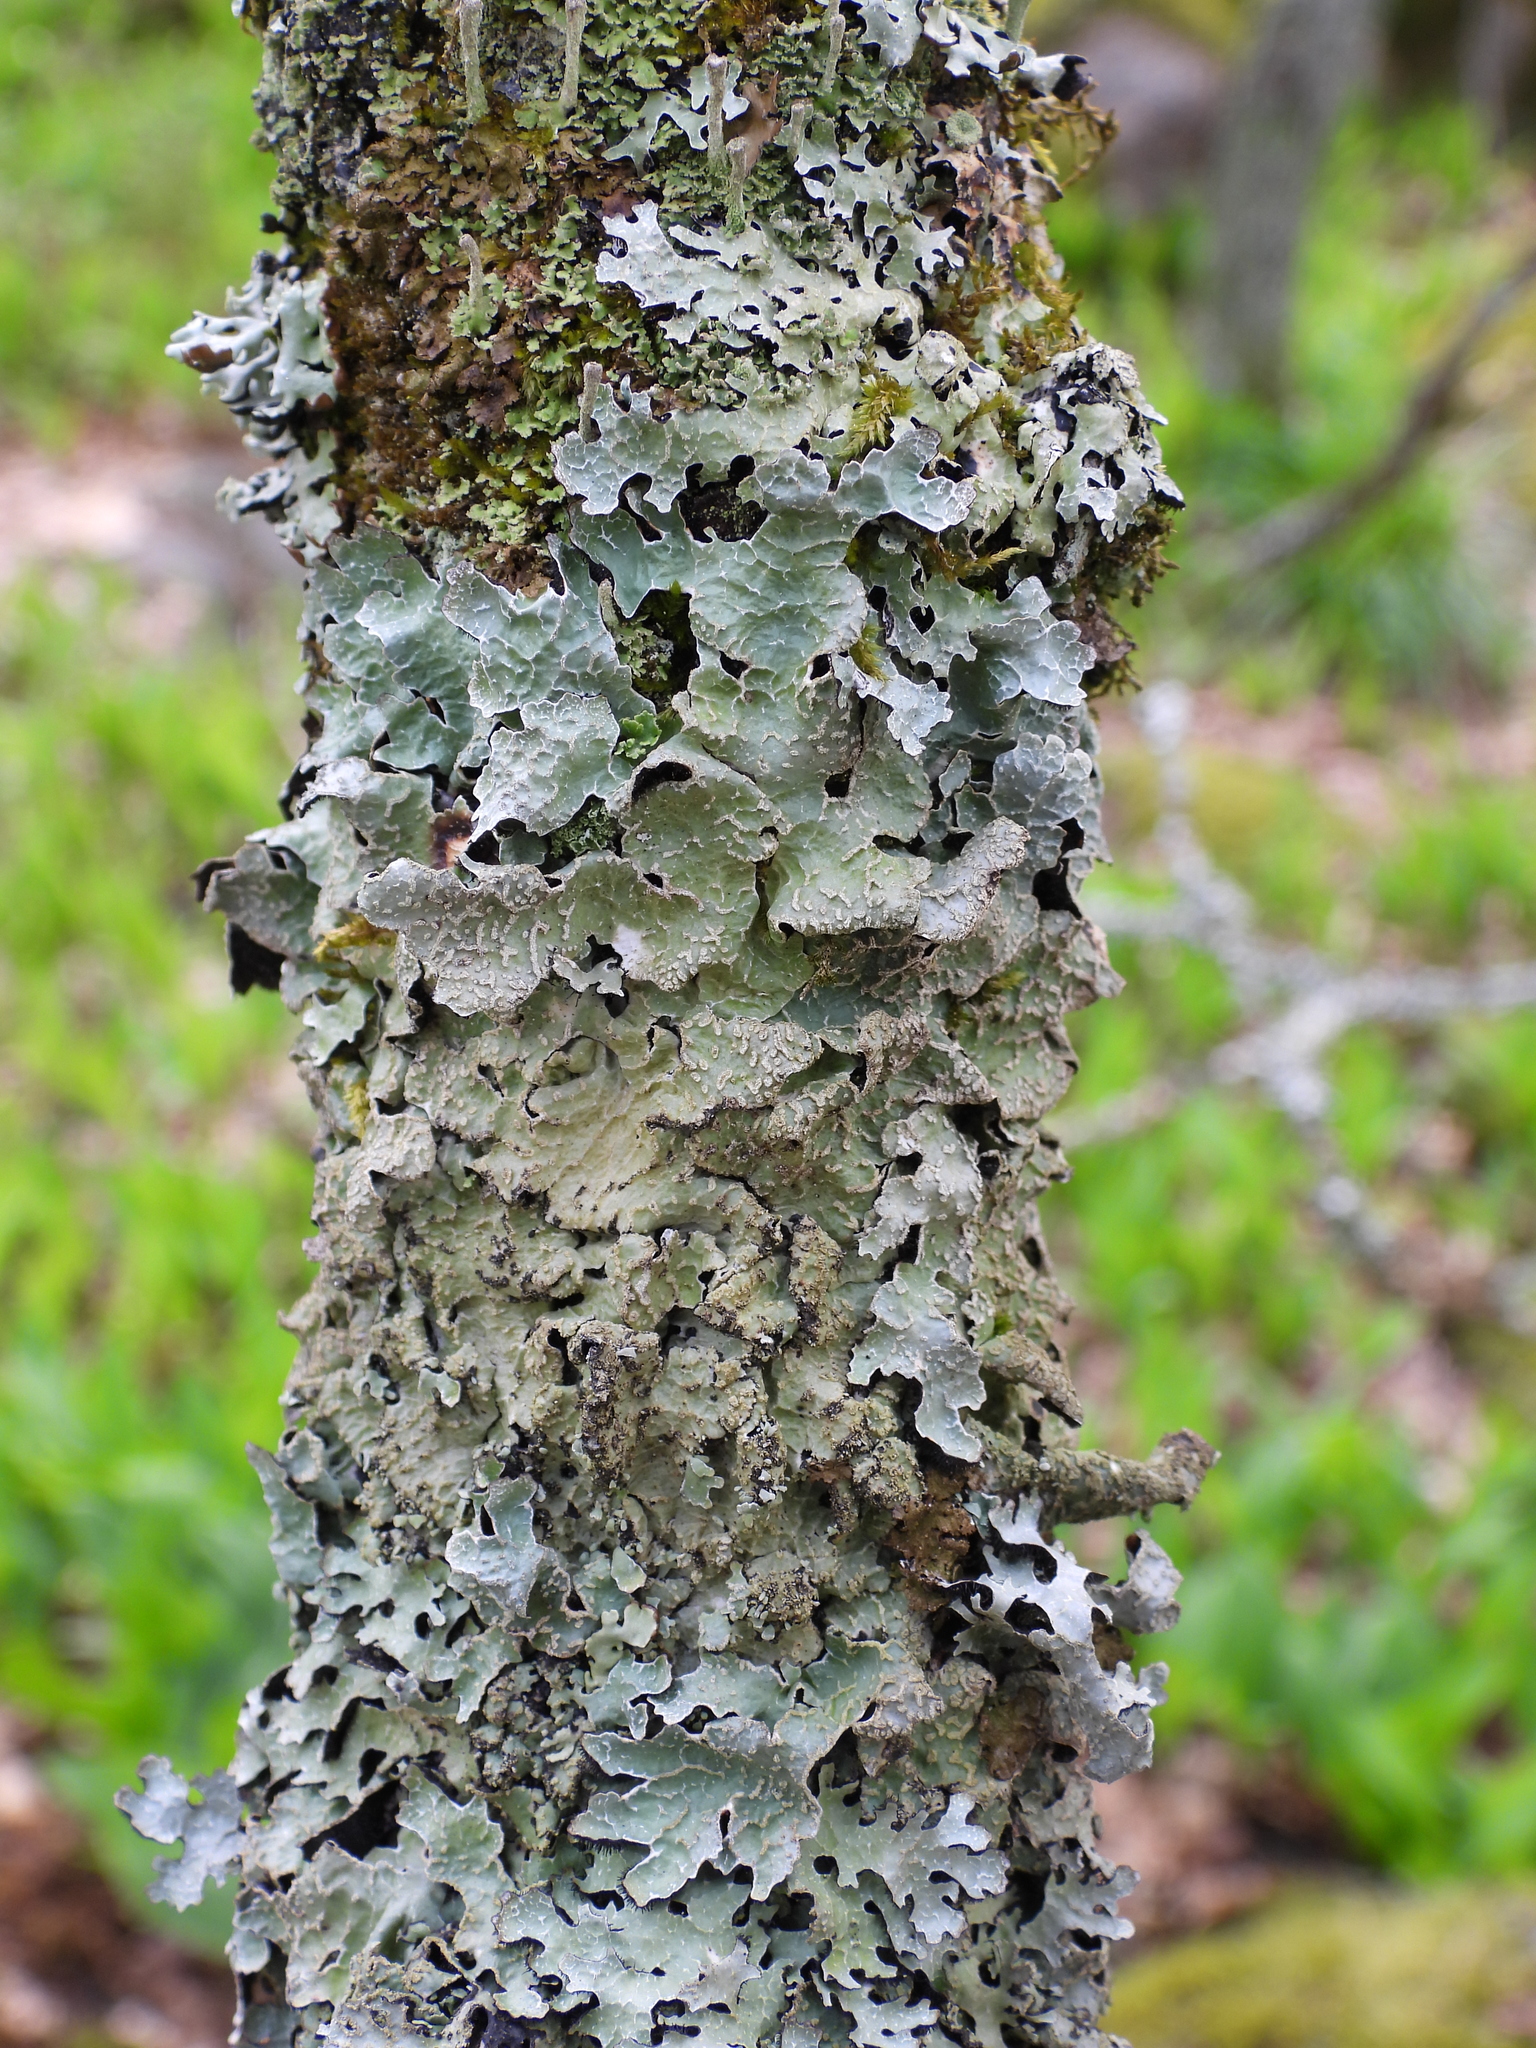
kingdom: Fungi
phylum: Ascomycota
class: Lecanoromycetes
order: Lecanorales
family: Parmeliaceae
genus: Parmelia
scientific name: Parmelia sulcata
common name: Netted shield lichen
